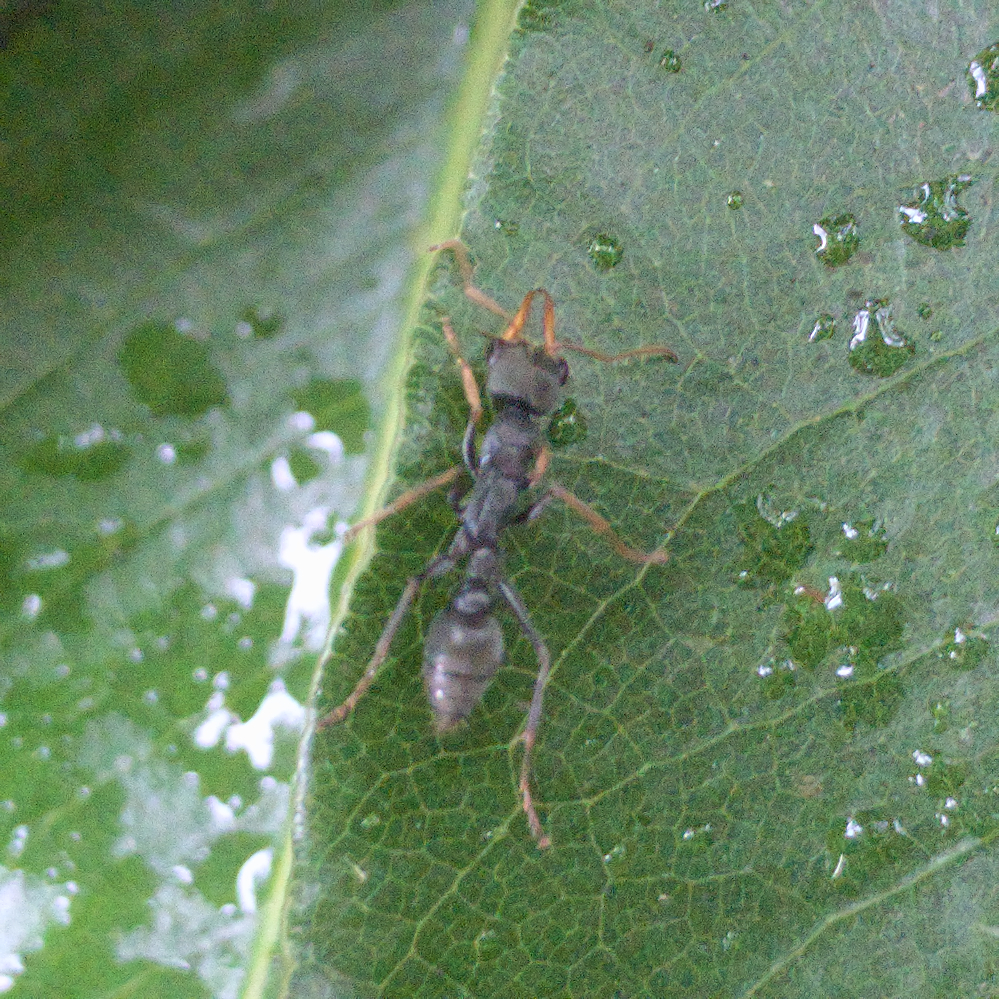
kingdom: Animalia
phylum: Arthropoda
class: Insecta
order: Hymenoptera
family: Formicidae
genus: Myrmecia
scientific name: Myrmecia pilosula
